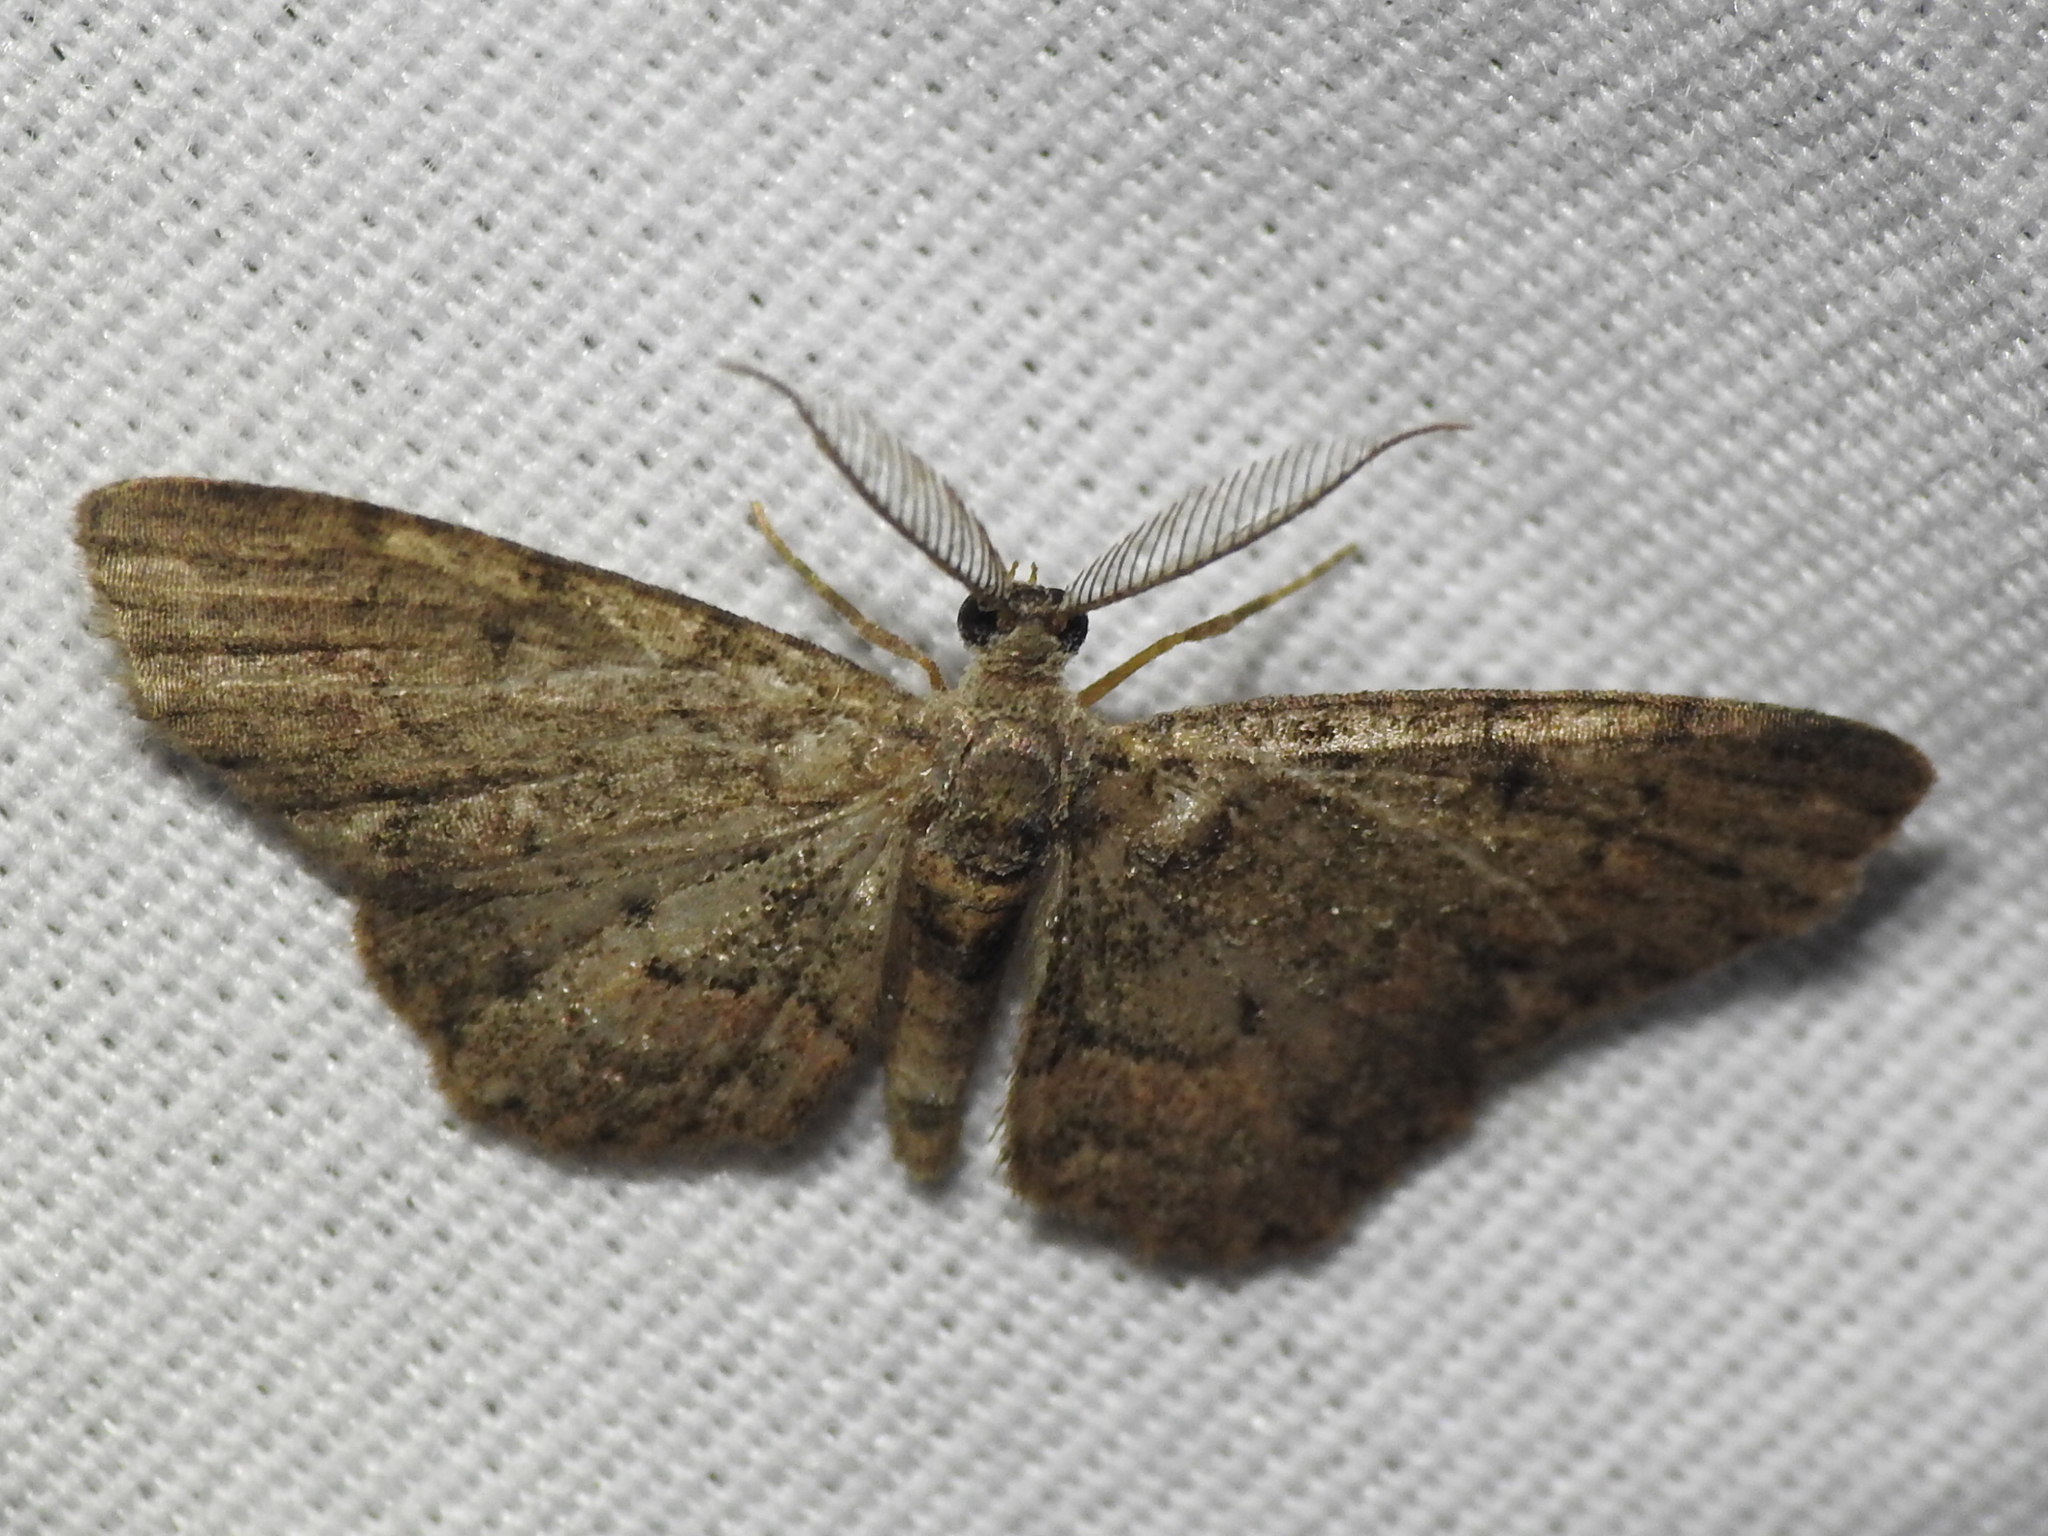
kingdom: Animalia
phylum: Arthropoda
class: Insecta
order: Lepidoptera
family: Geometridae
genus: Glenoides
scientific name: Glenoides texanaria
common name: Texas gray
